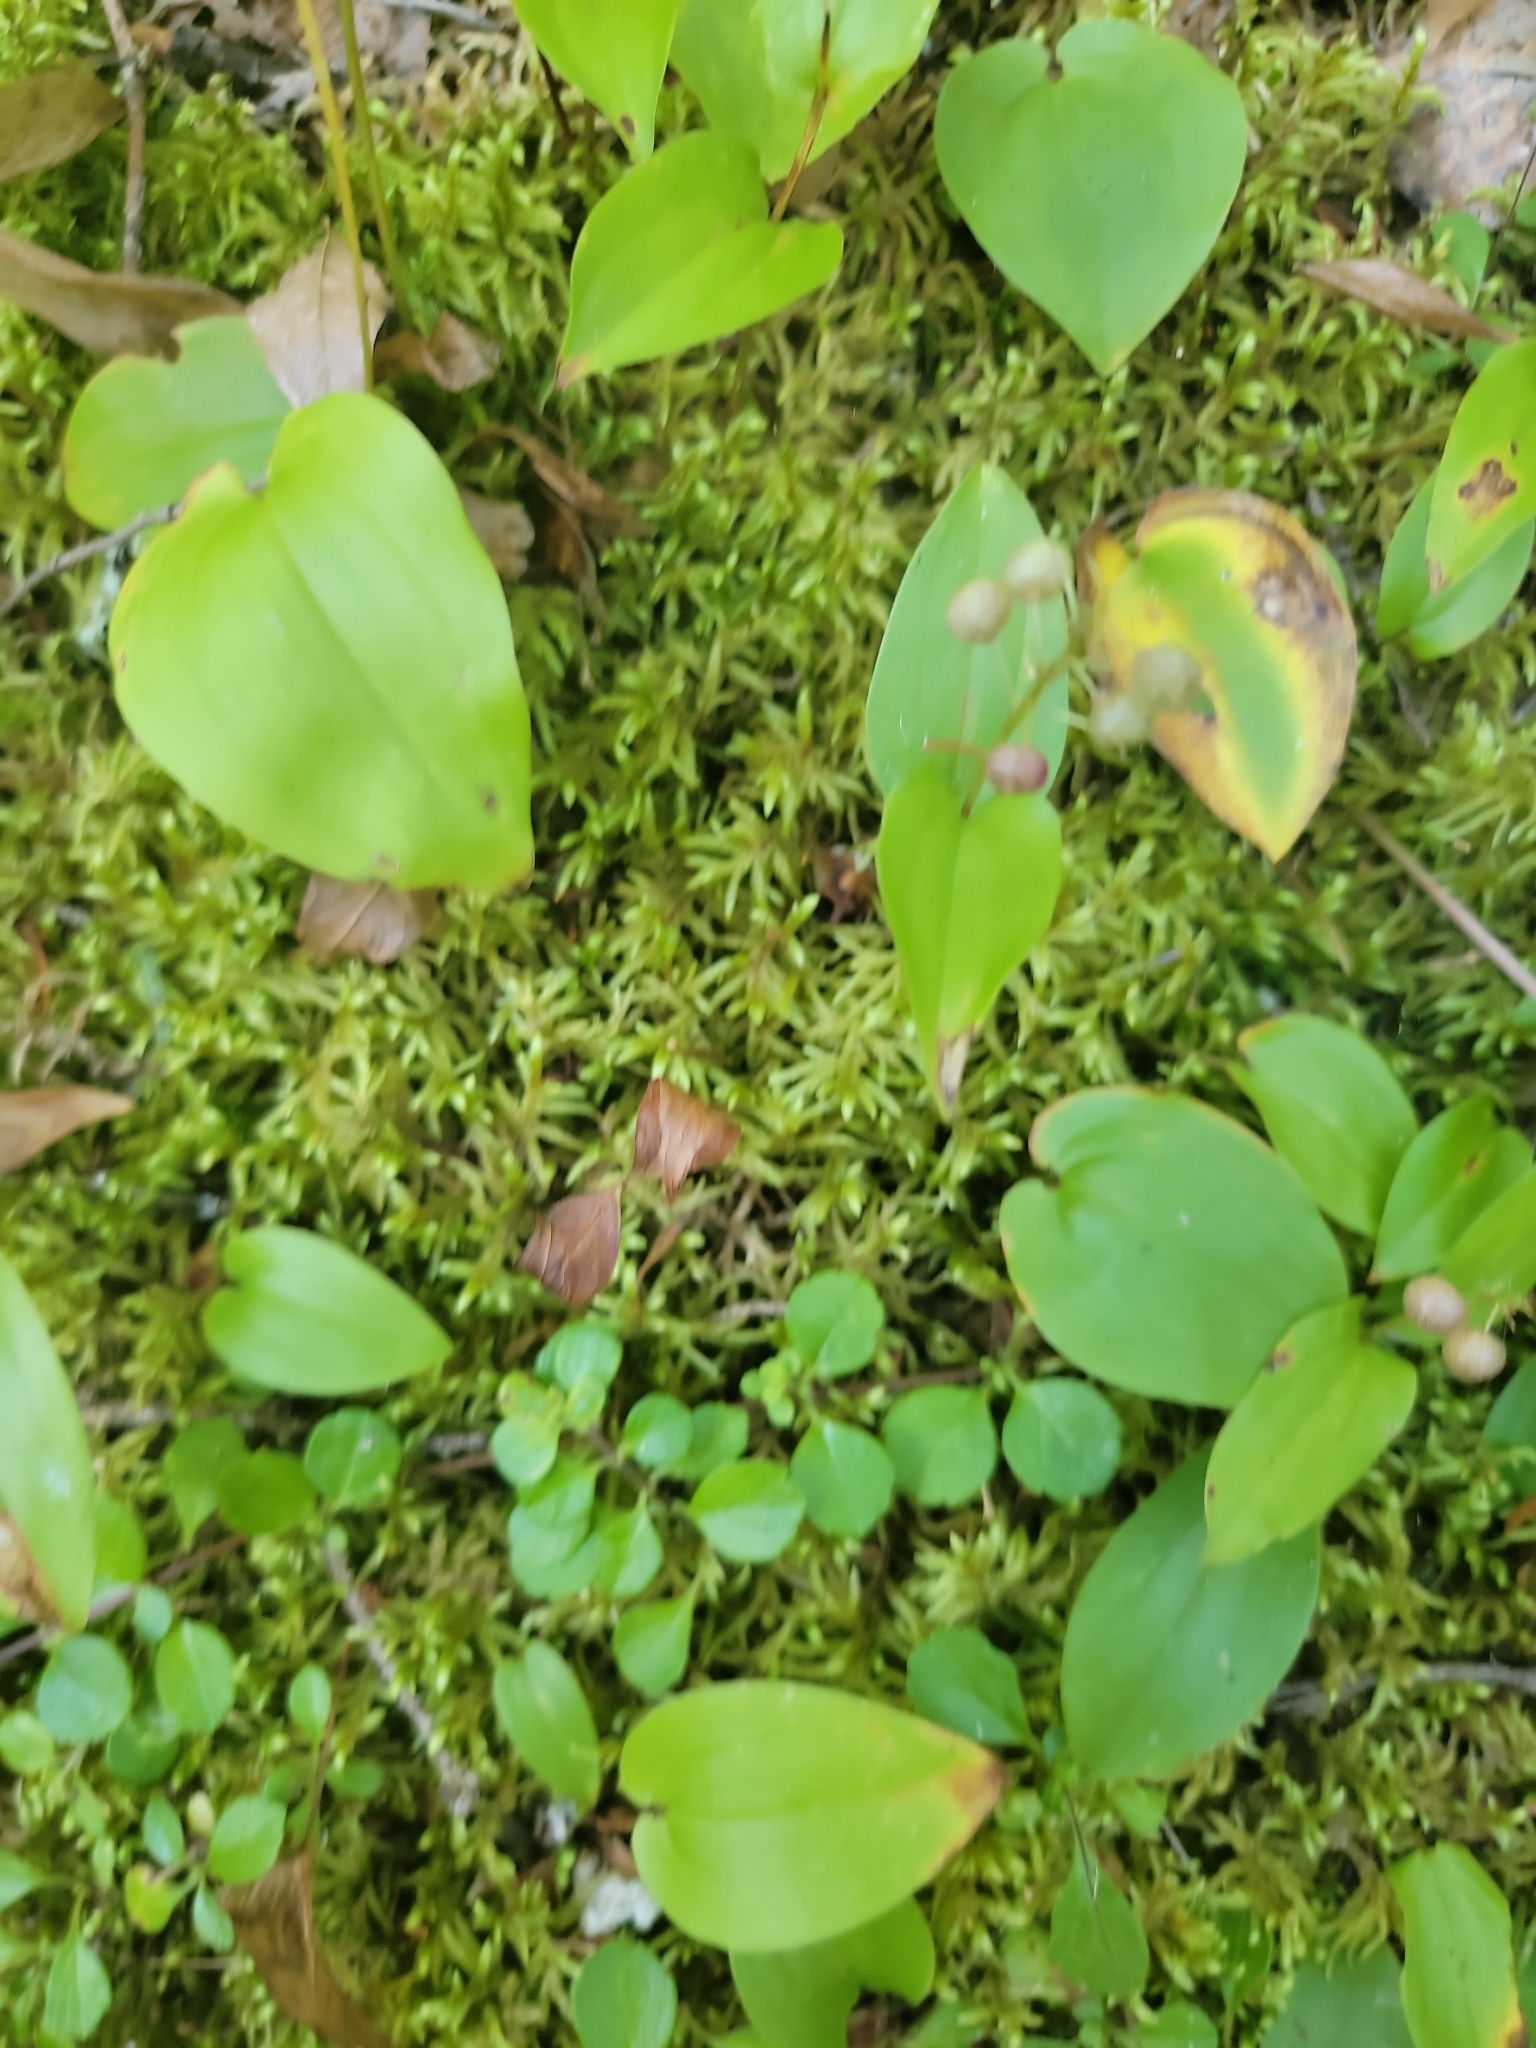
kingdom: Plantae
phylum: Tracheophyta
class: Liliopsida
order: Asparagales
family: Asparagaceae
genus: Maianthemum
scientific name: Maianthemum canadense
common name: False lily-of-the-valley
